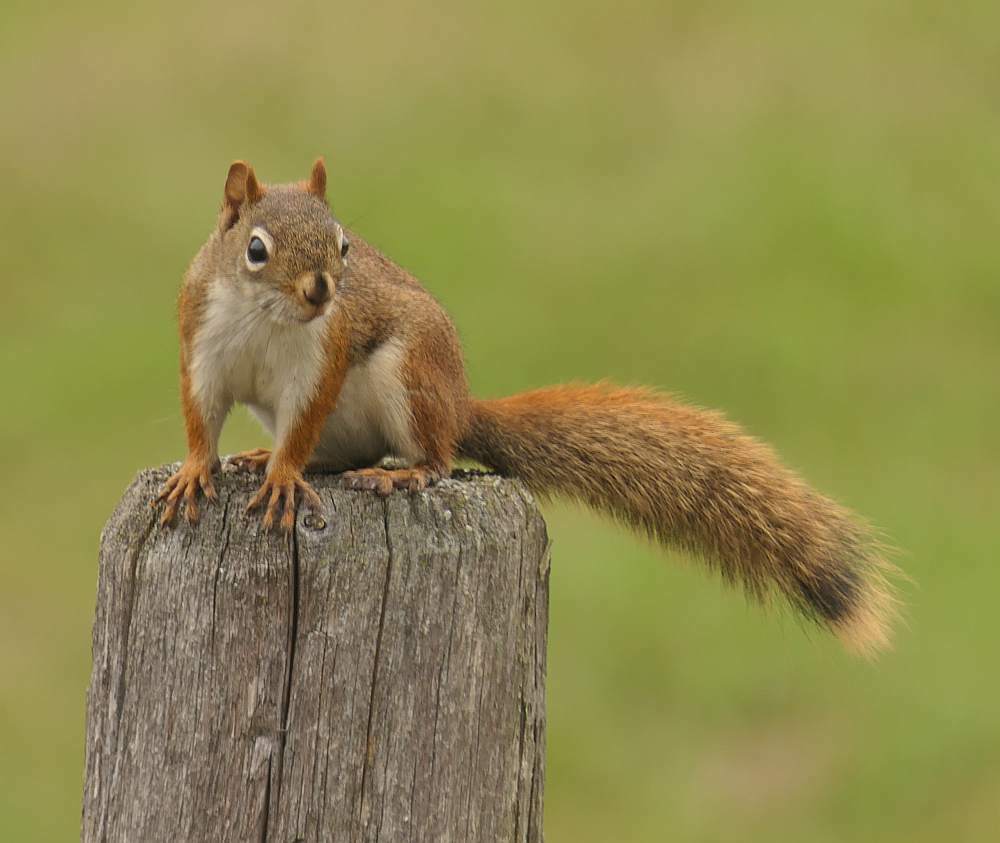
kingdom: Animalia
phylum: Chordata
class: Mammalia
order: Rodentia
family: Sciuridae
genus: Tamiasciurus
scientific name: Tamiasciurus hudsonicus
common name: Red squirrel
